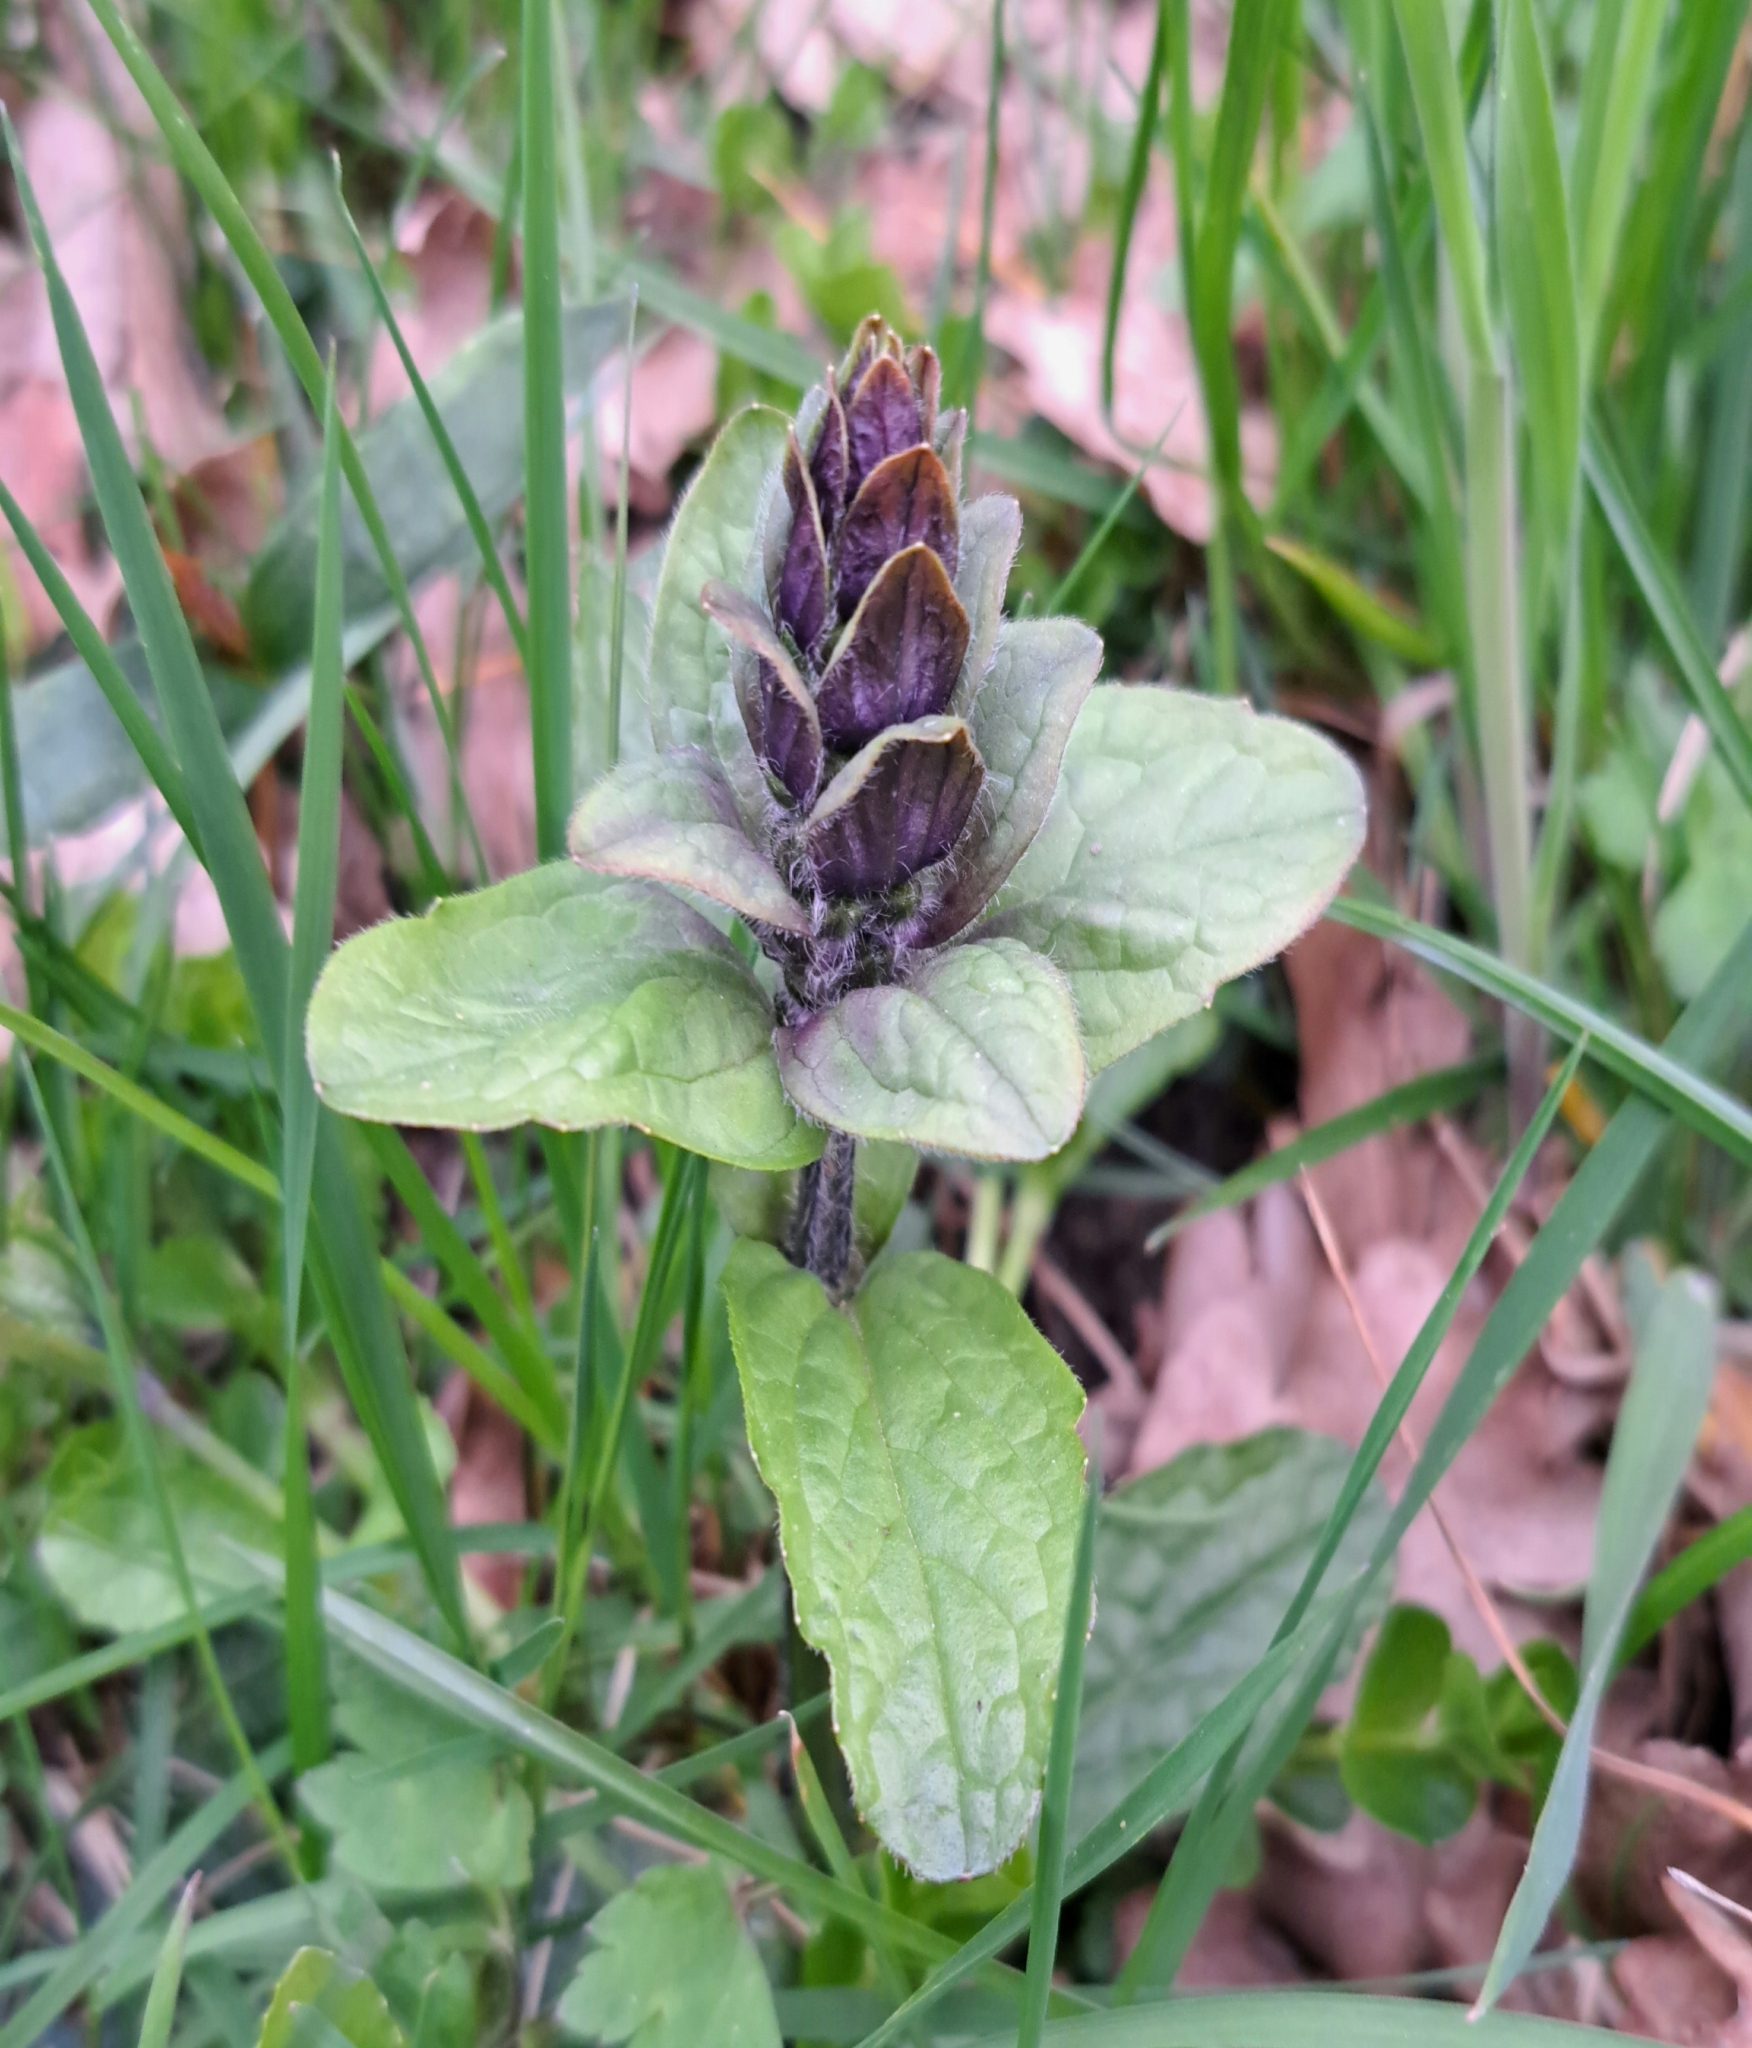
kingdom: Plantae
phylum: Tracheophyta
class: Magnoliopsida
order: Lamiales
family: Lamiaceae
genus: Ajuga
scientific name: Ajuga reptans
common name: Bugle
